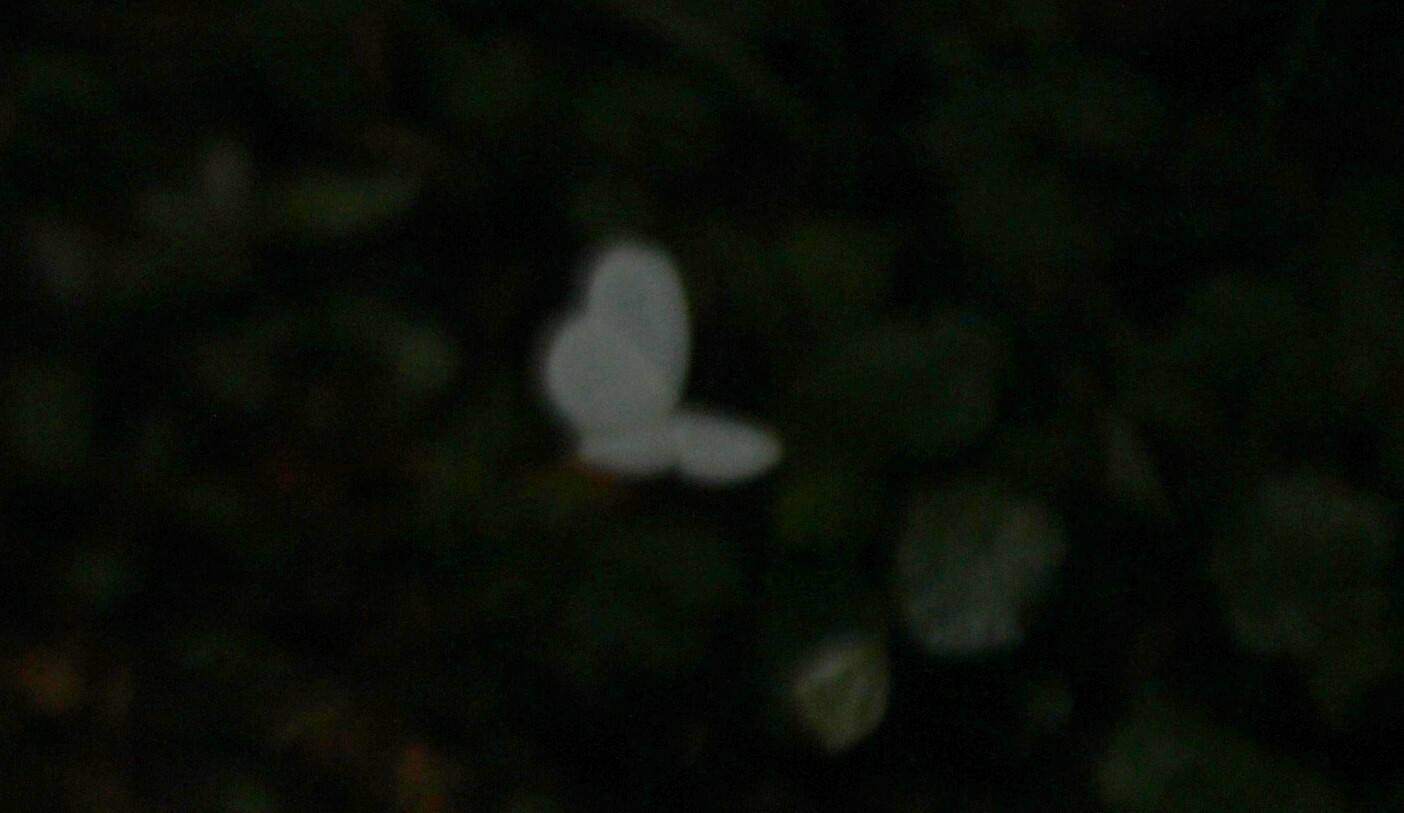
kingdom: Animalia
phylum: Arthropoda
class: Insecta
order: Lepidoptera
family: Pieridae
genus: Leptosia
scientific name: Leptosia nupta
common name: Immaculate wood white
